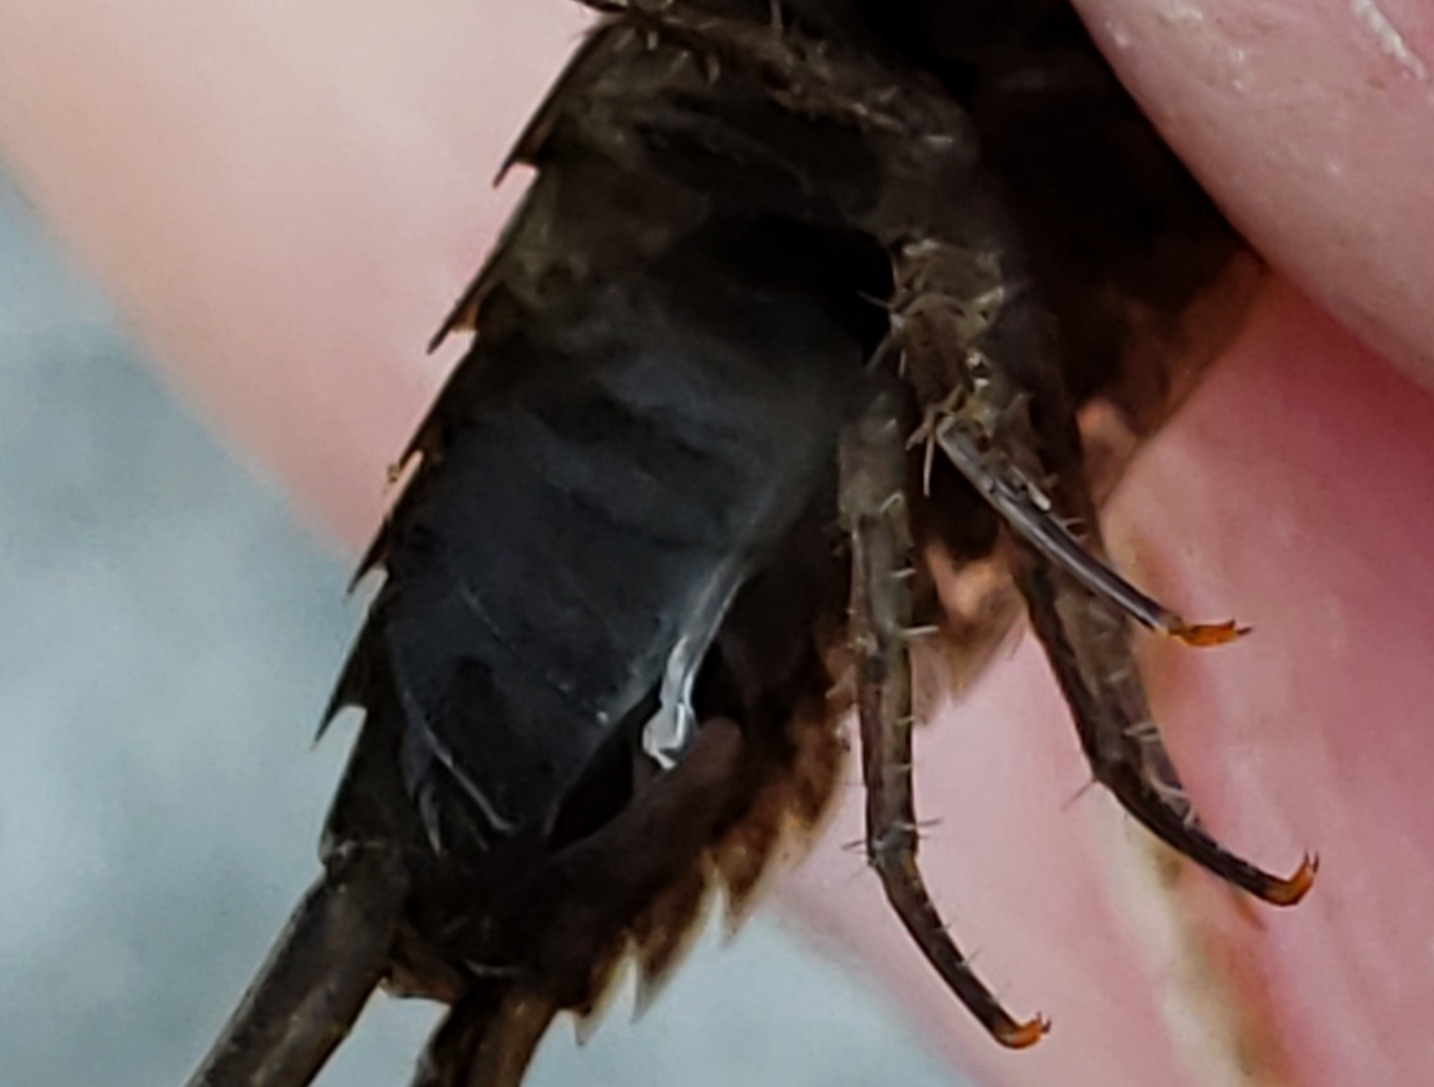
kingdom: Animalia
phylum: Arthropoda
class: Malacostraca
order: Isopoda
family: Ligiidae
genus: Ligia
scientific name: Ligia exotica
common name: Wharf roach
